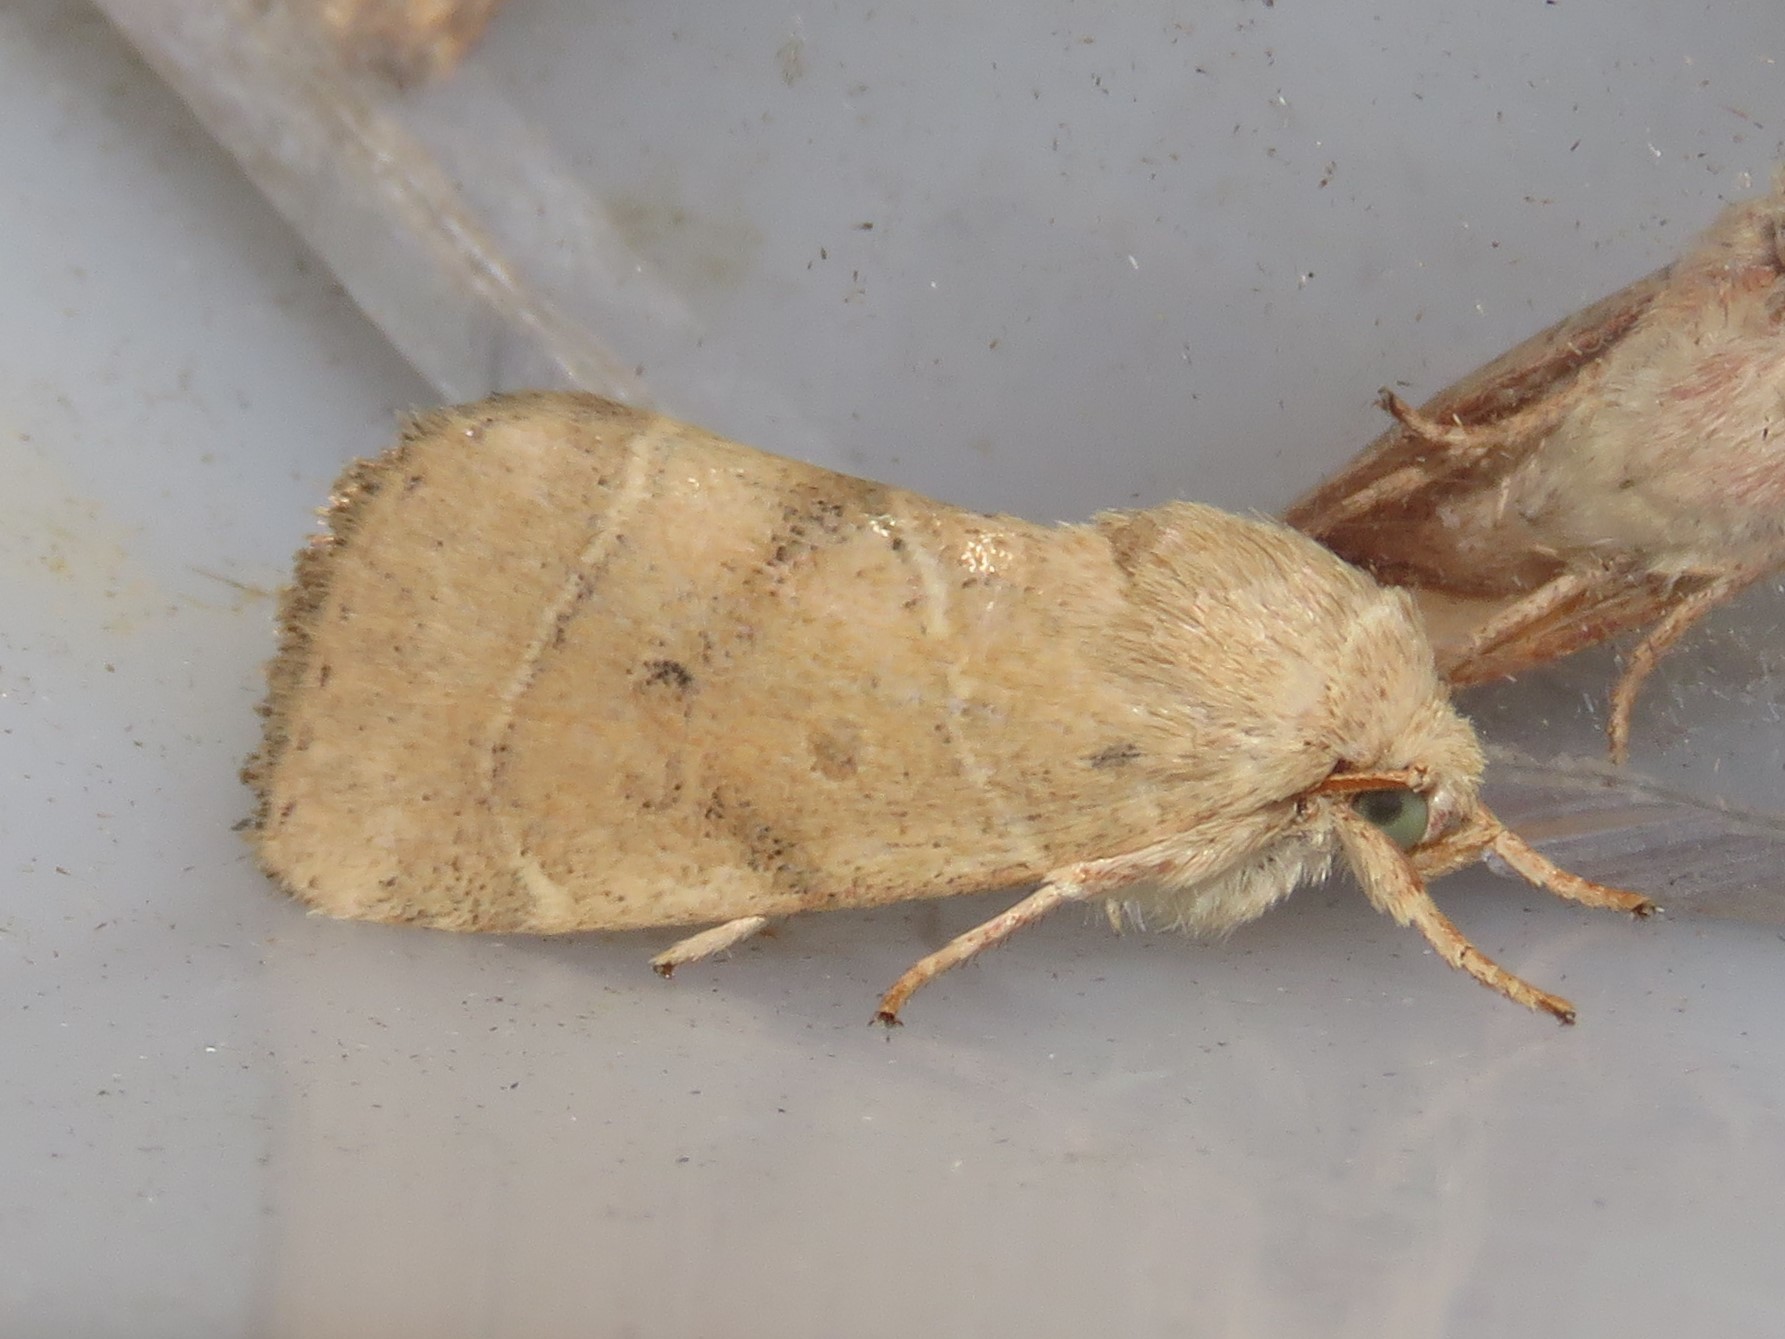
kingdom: Animalia
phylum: Arthropoda
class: Insecta
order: Lepidoptera
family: Noctuidae
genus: Cosmia
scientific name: Cosmia calami
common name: American dun-bar moth
